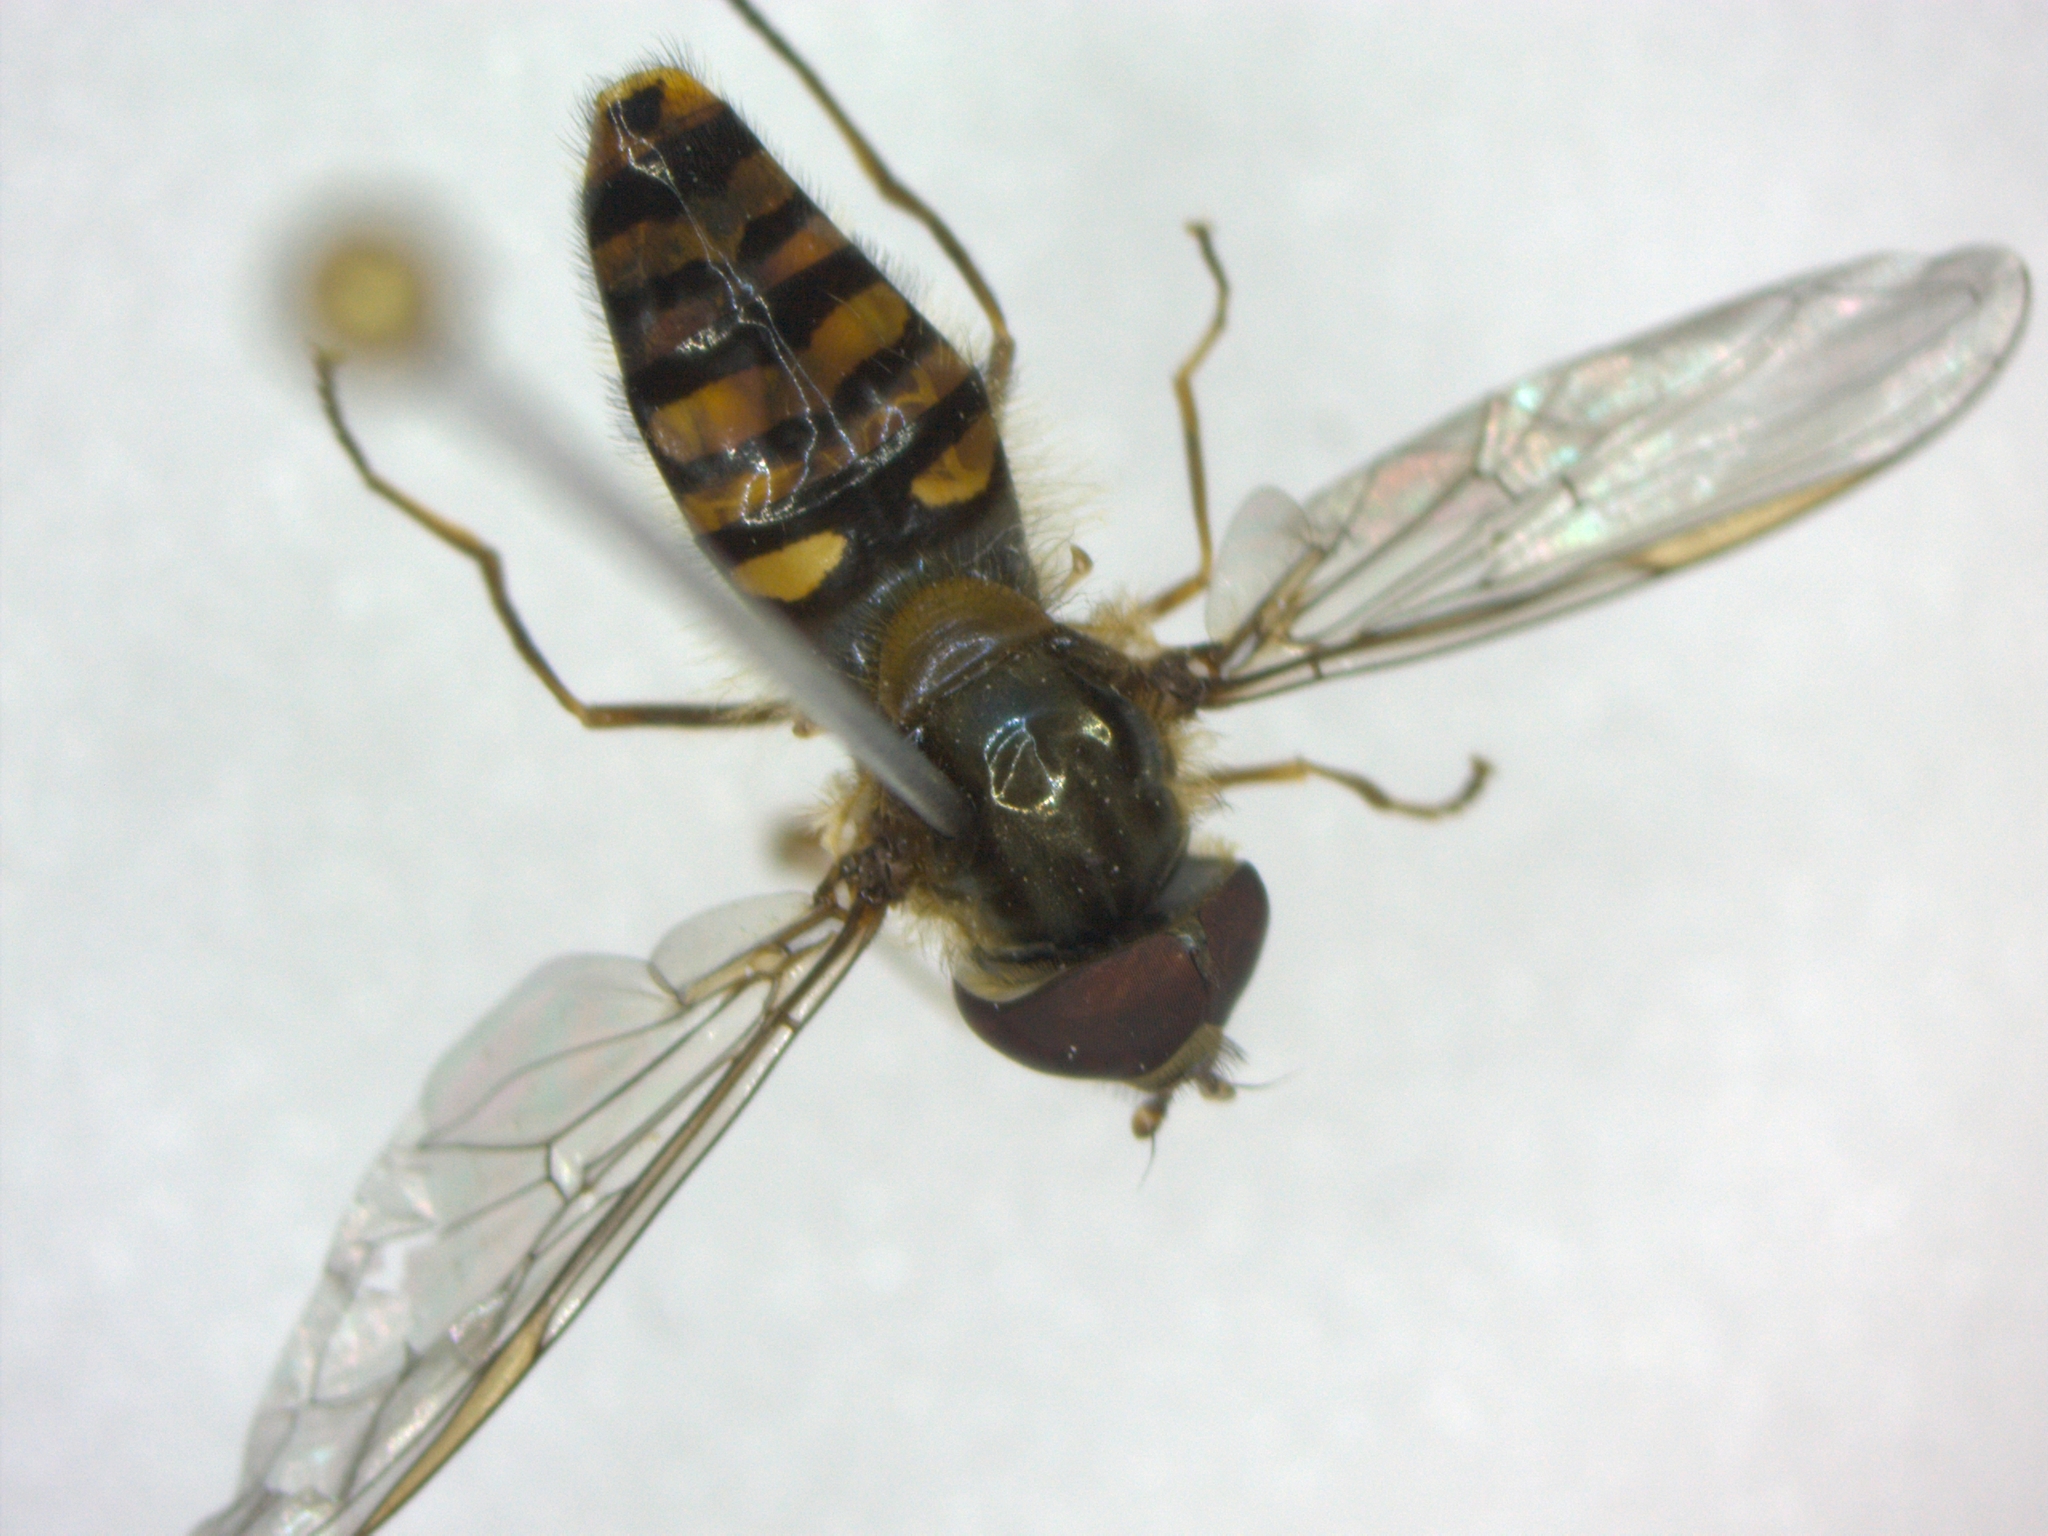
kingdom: Animalia
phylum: Arthropoda
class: Insecta
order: Diptera
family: Syrphidae
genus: Episyrphus
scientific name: Episyrphus balteatus
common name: Marmalade hoverfly
